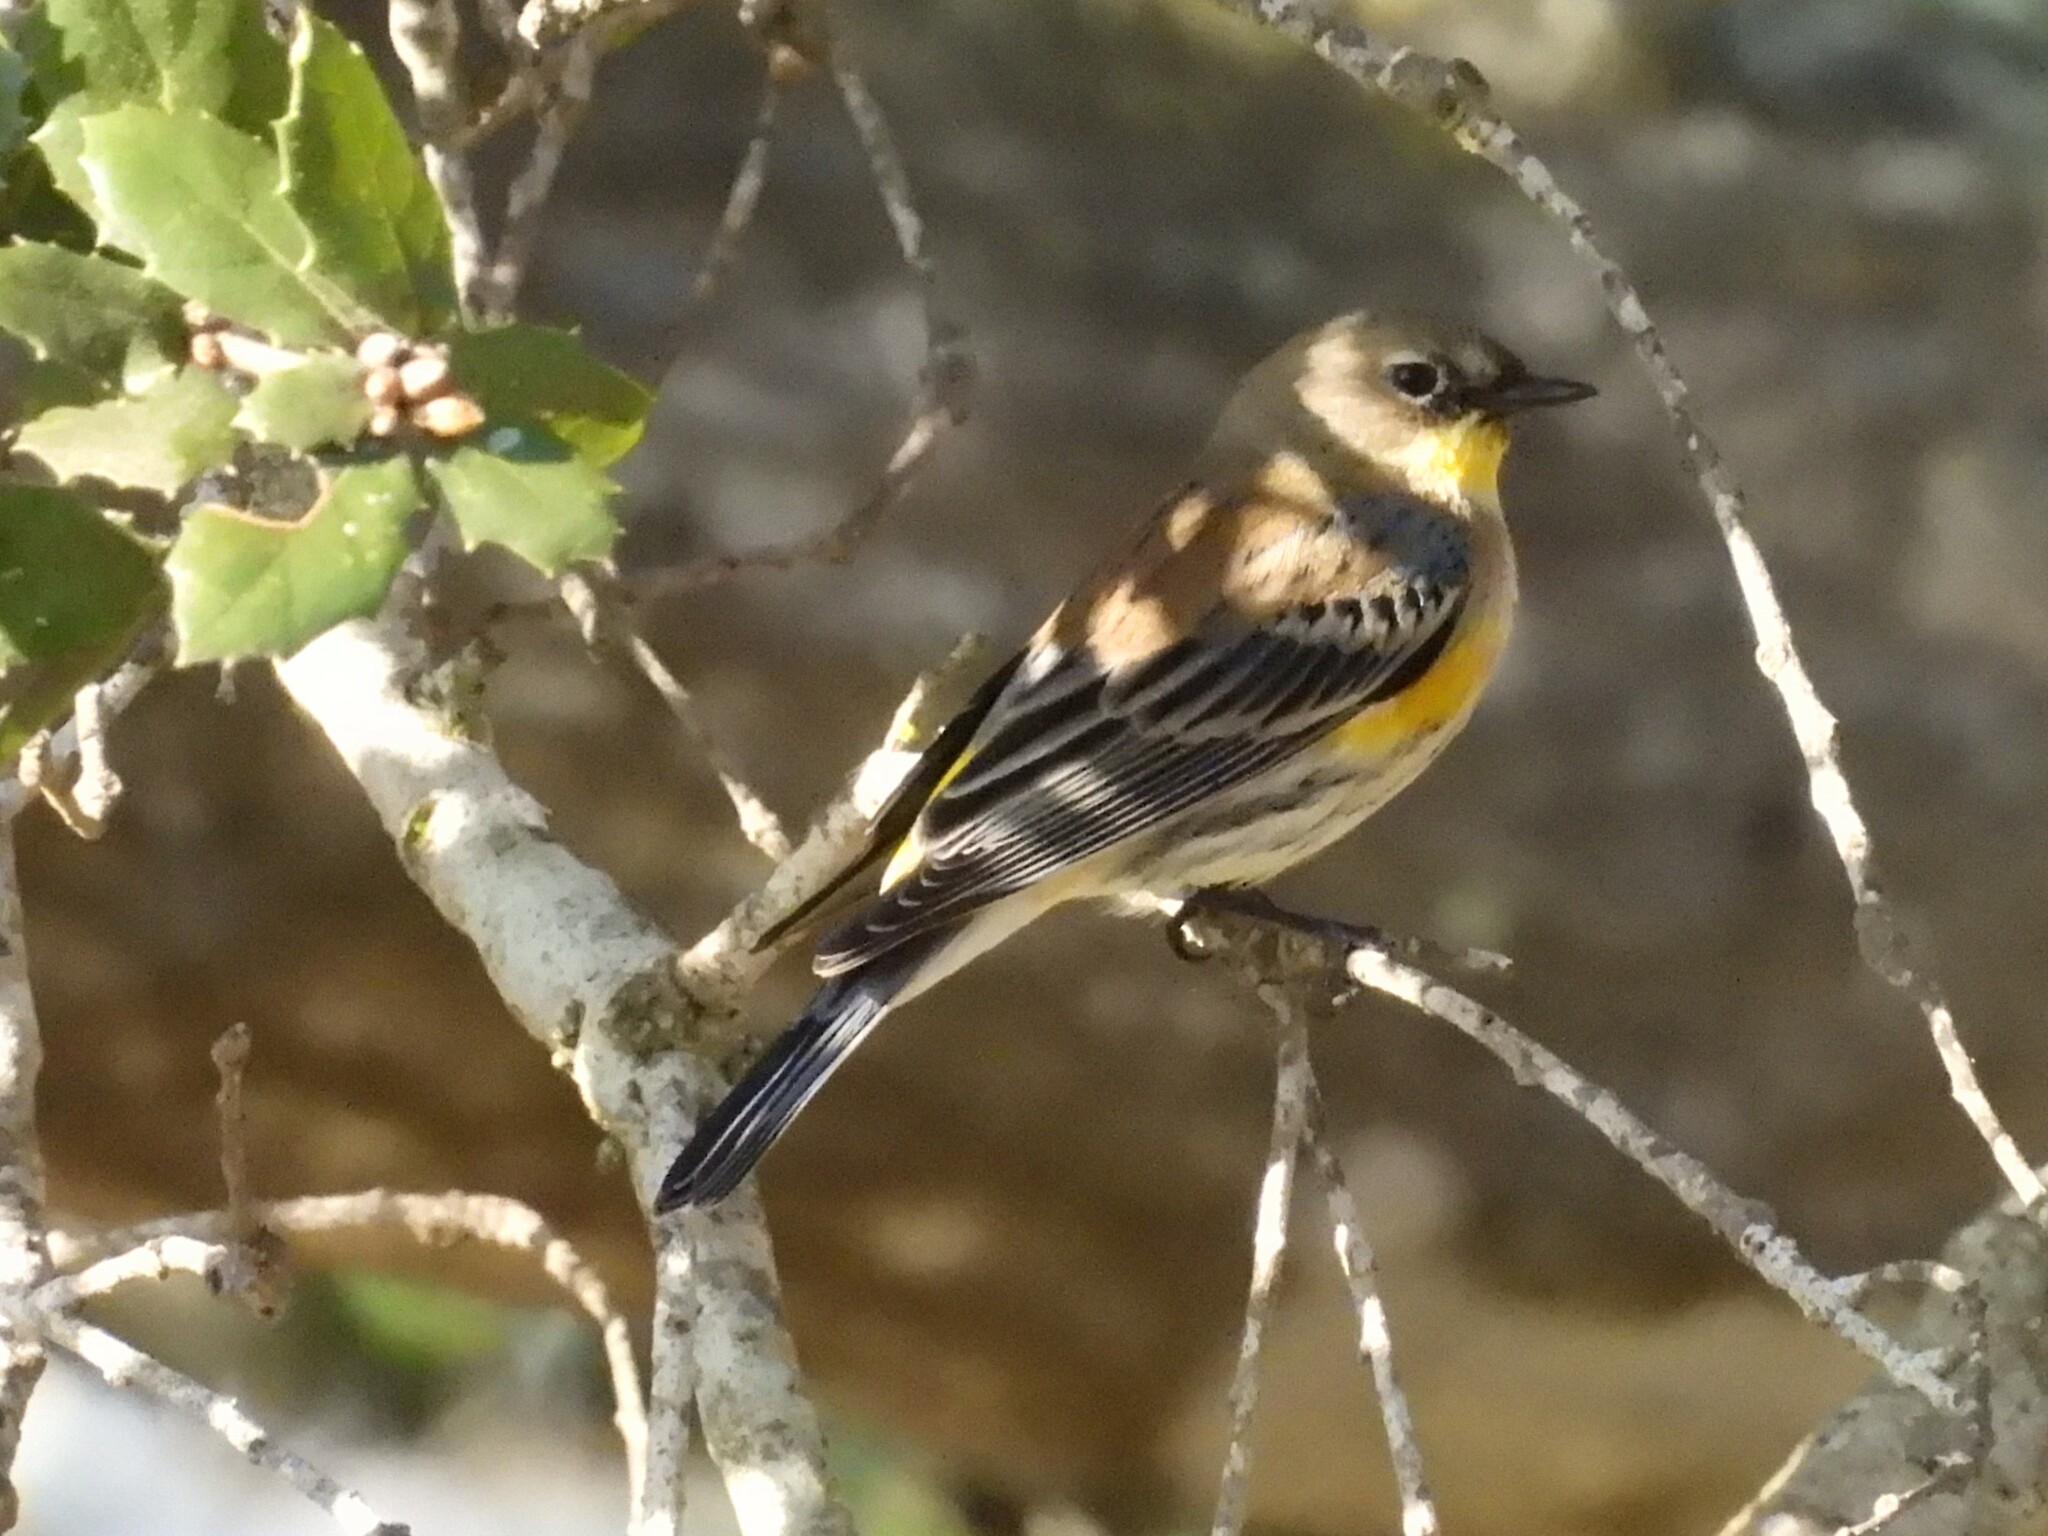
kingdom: Animalia
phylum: Chordata
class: Aves
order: Passeriformes
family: Parulidae
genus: Setophaga
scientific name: Setophaga coronata
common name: Myrtle warbler
